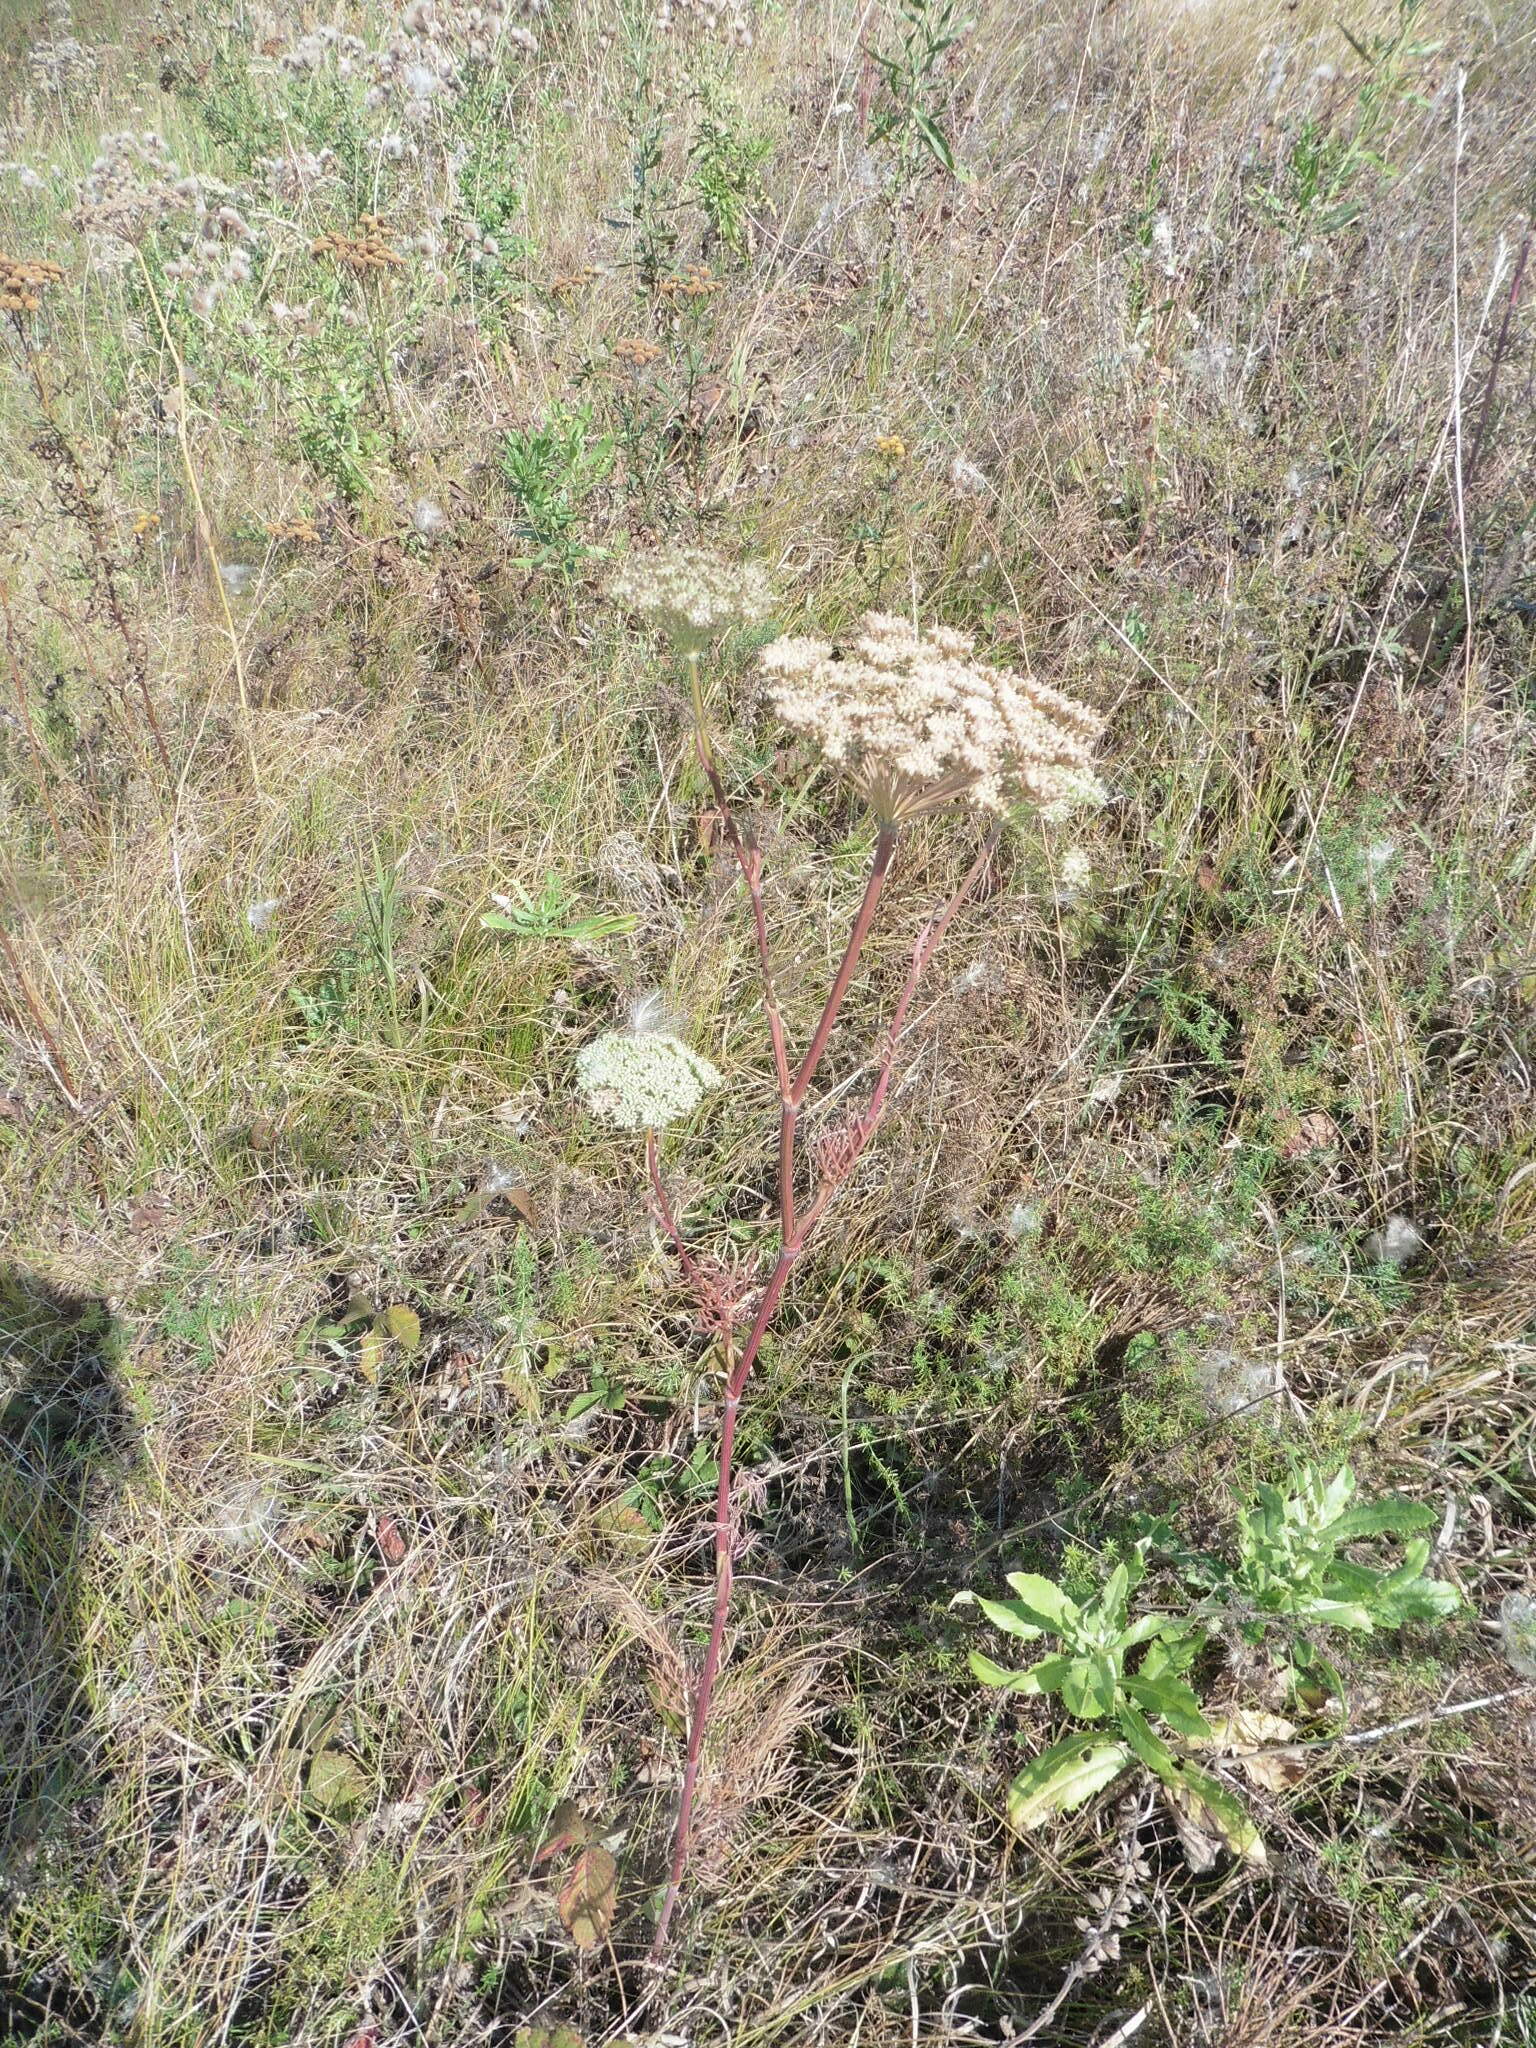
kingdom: Plantae
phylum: Tracheophyta
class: Magnoliopsida
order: Apiales
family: Apiaceae
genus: Seseli
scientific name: Seseli annuum
